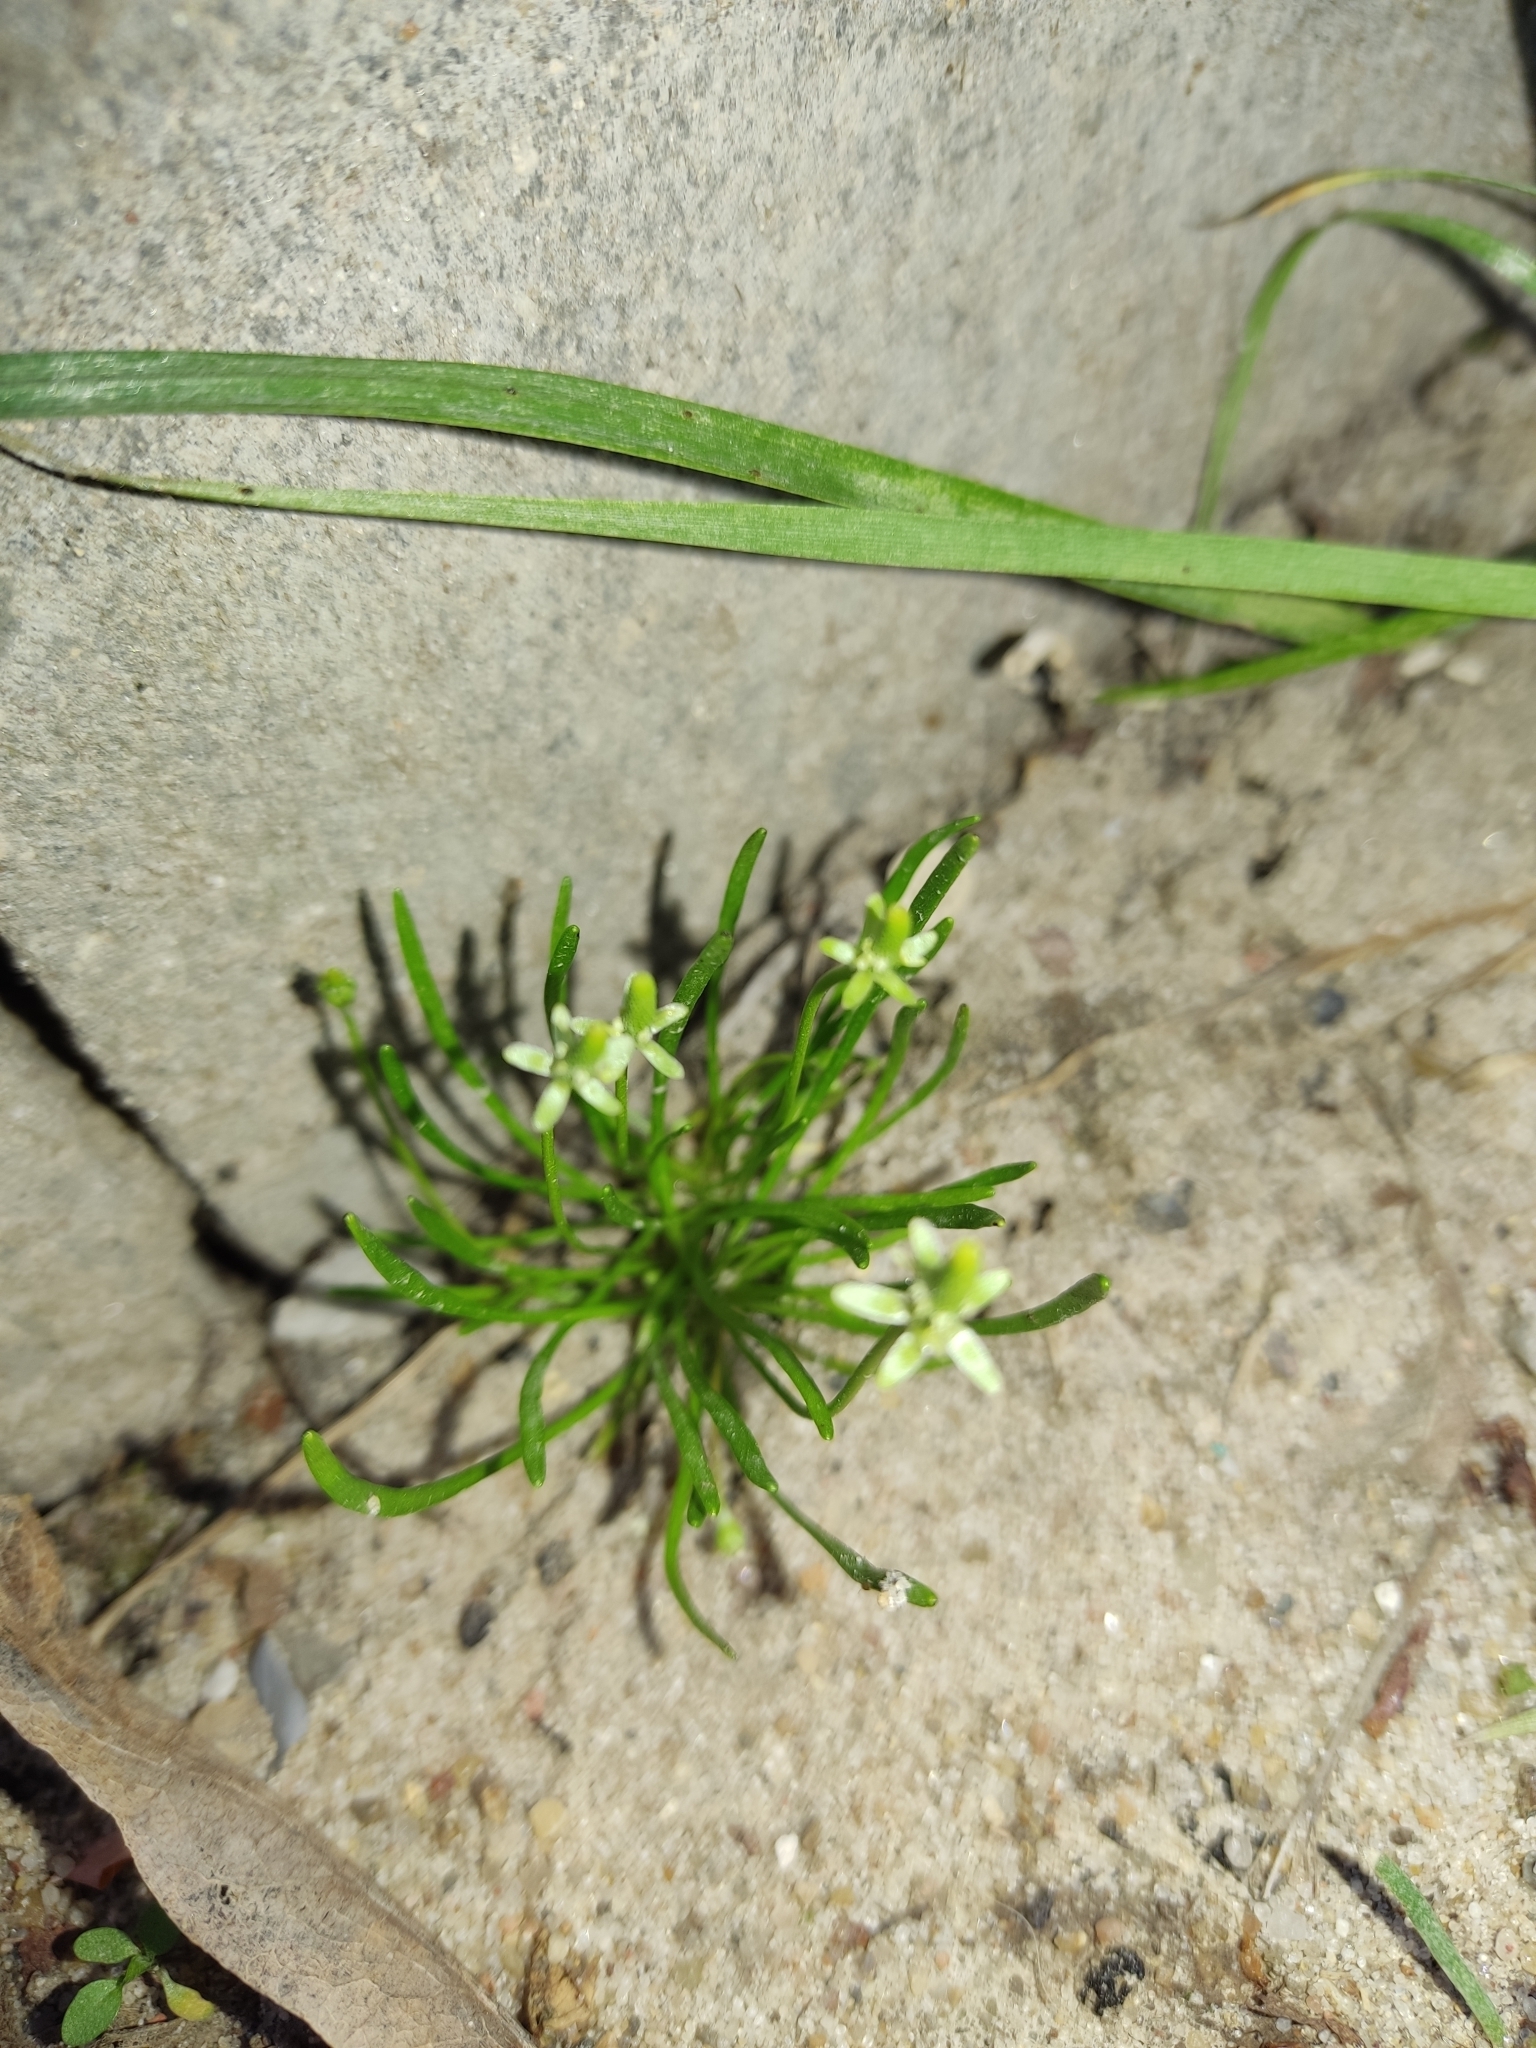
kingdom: Plantae
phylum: Tracheophyta
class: Magnoliopsida
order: Ranunculales
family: Ranunculaceae
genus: Myosurus
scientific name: Myosurus minimus
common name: Mousetail
